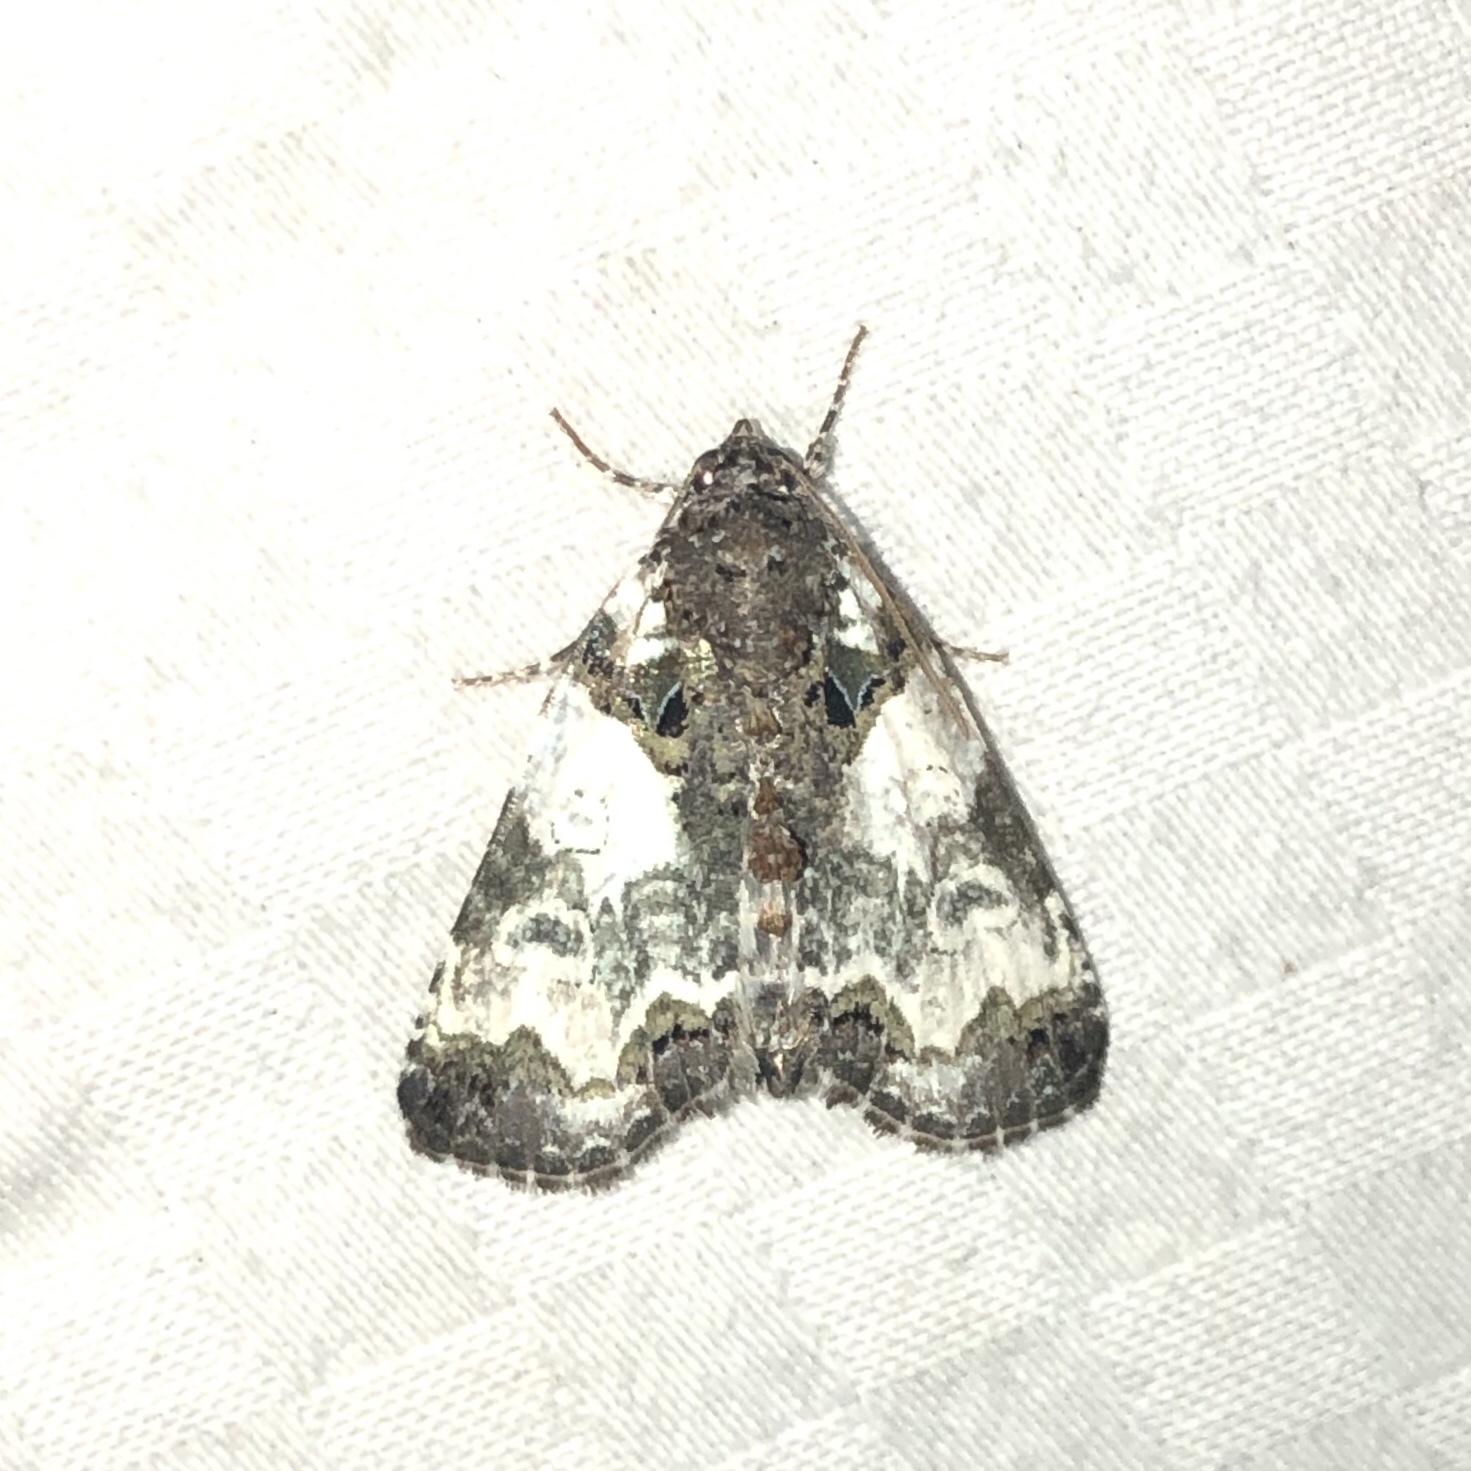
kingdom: Animalia
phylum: Arthropoda
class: Insecta
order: Lepidoptera
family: Noctuidae
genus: Cerma
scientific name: Cerma cerintha
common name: Tufted bird-dropping moth
